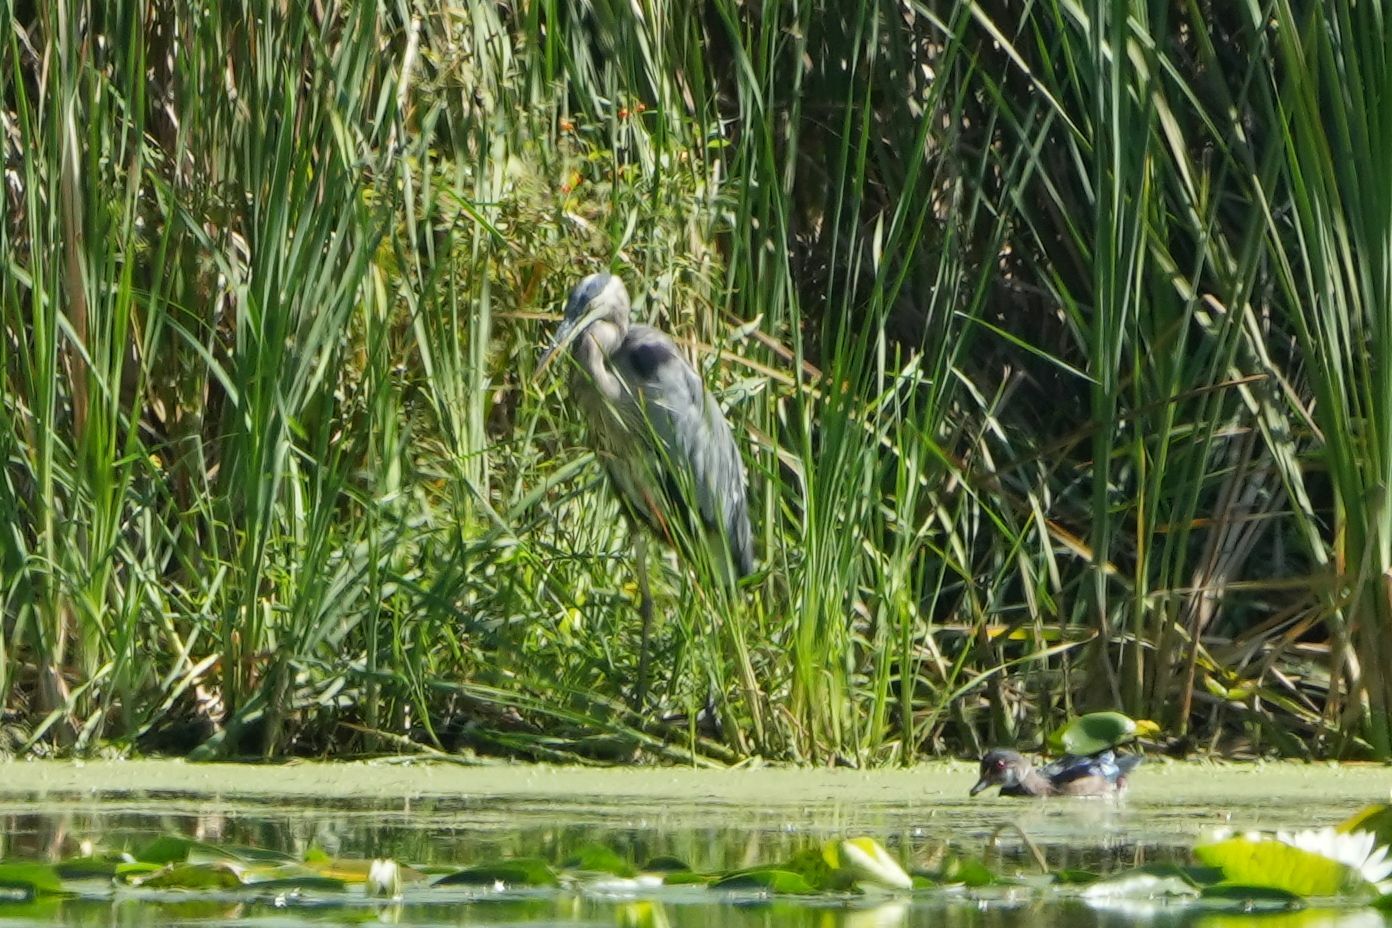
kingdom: Animalia
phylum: Chordata
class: Aves
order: Pelecaniformes
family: Ardeidae
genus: Ardea
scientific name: Ardea herodias
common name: Great blue heron
